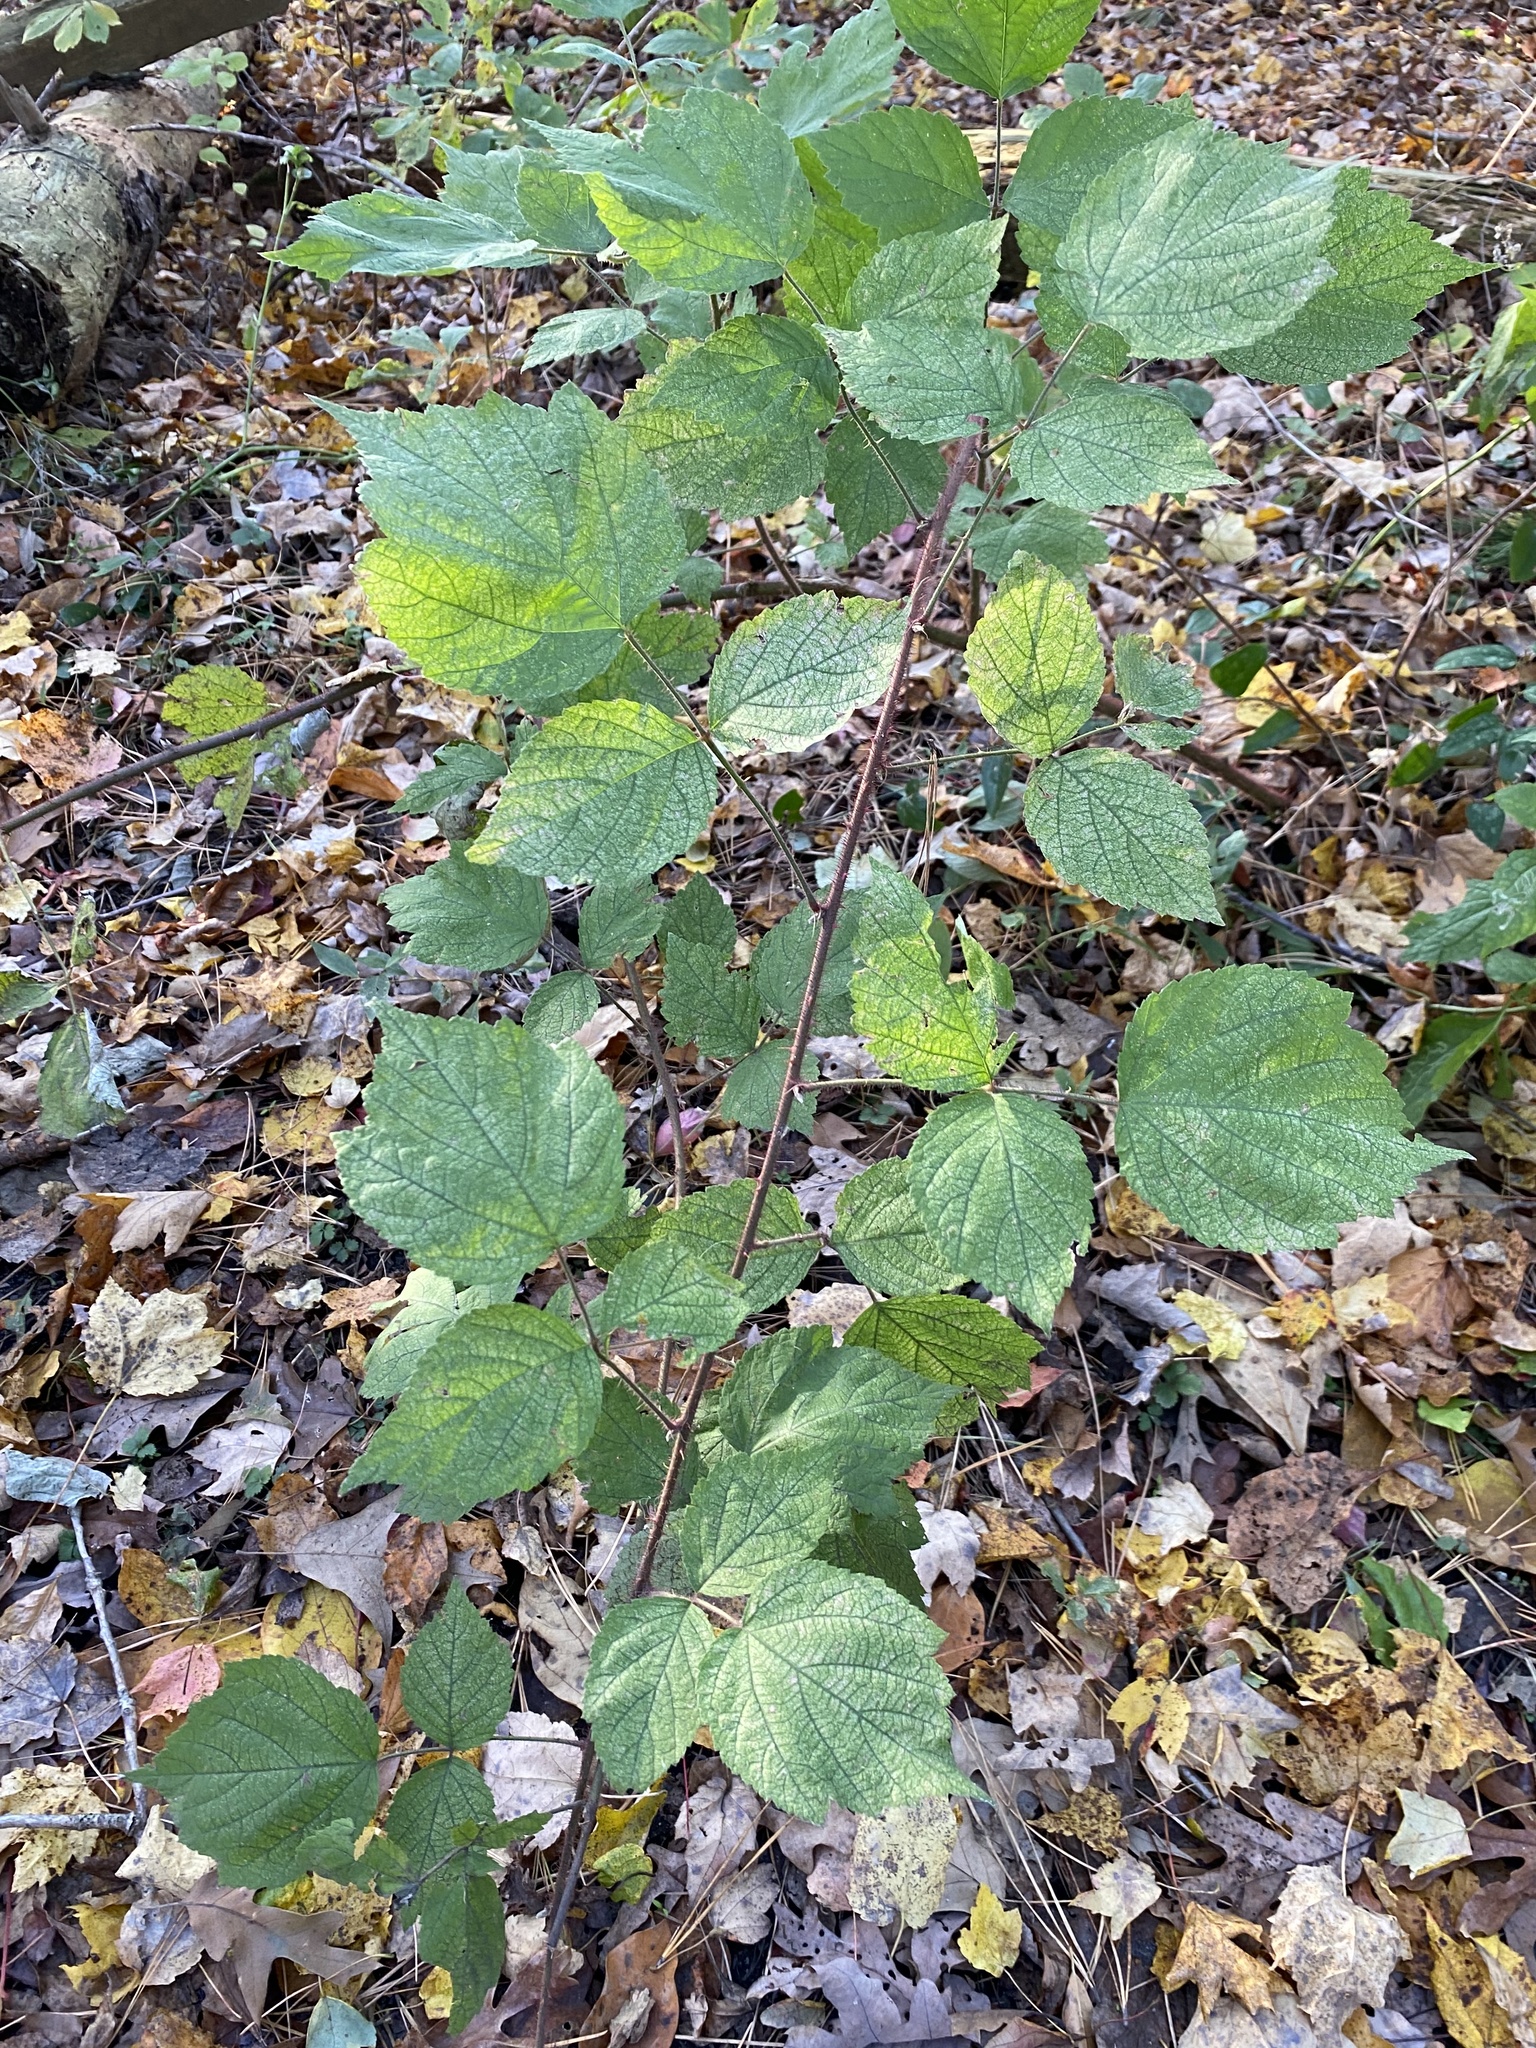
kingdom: Plantae
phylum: Tracheophyta
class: Magnoliopsida
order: Rosales
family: Rosaceae
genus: Rubus
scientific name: Rubus phoenicolasius
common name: Japanese wineberry
